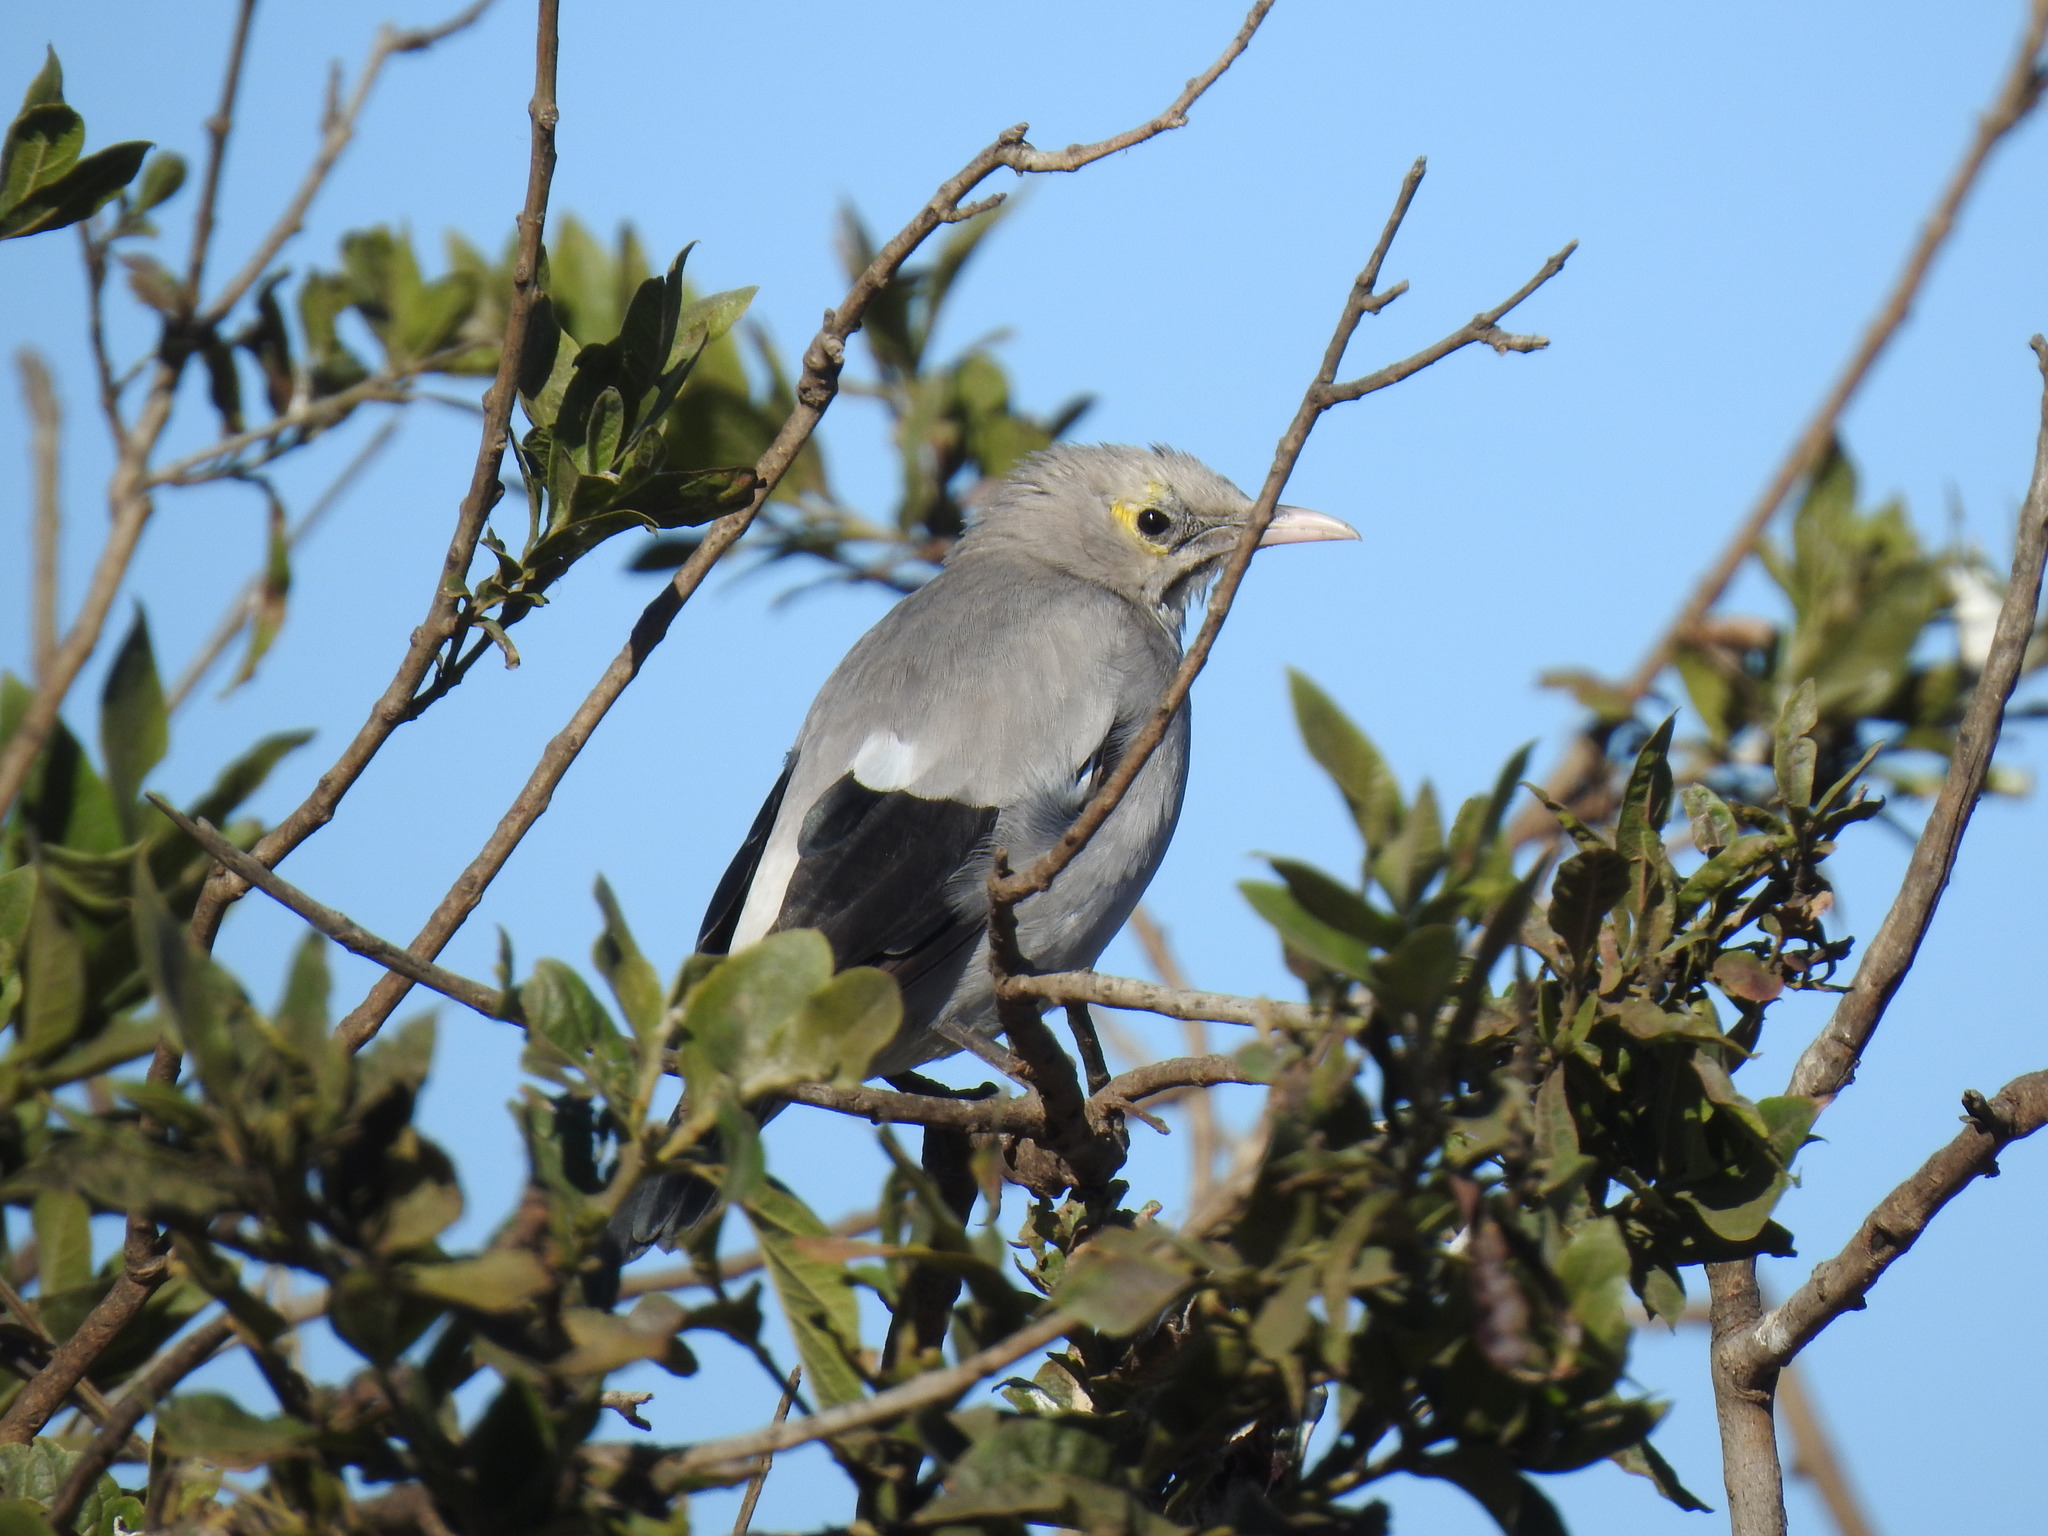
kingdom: Animalia
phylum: Chordata
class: Aves
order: Passeriformes
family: Sturnidae
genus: Creatophora
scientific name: Creatophora cinerea
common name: Wattled starling
